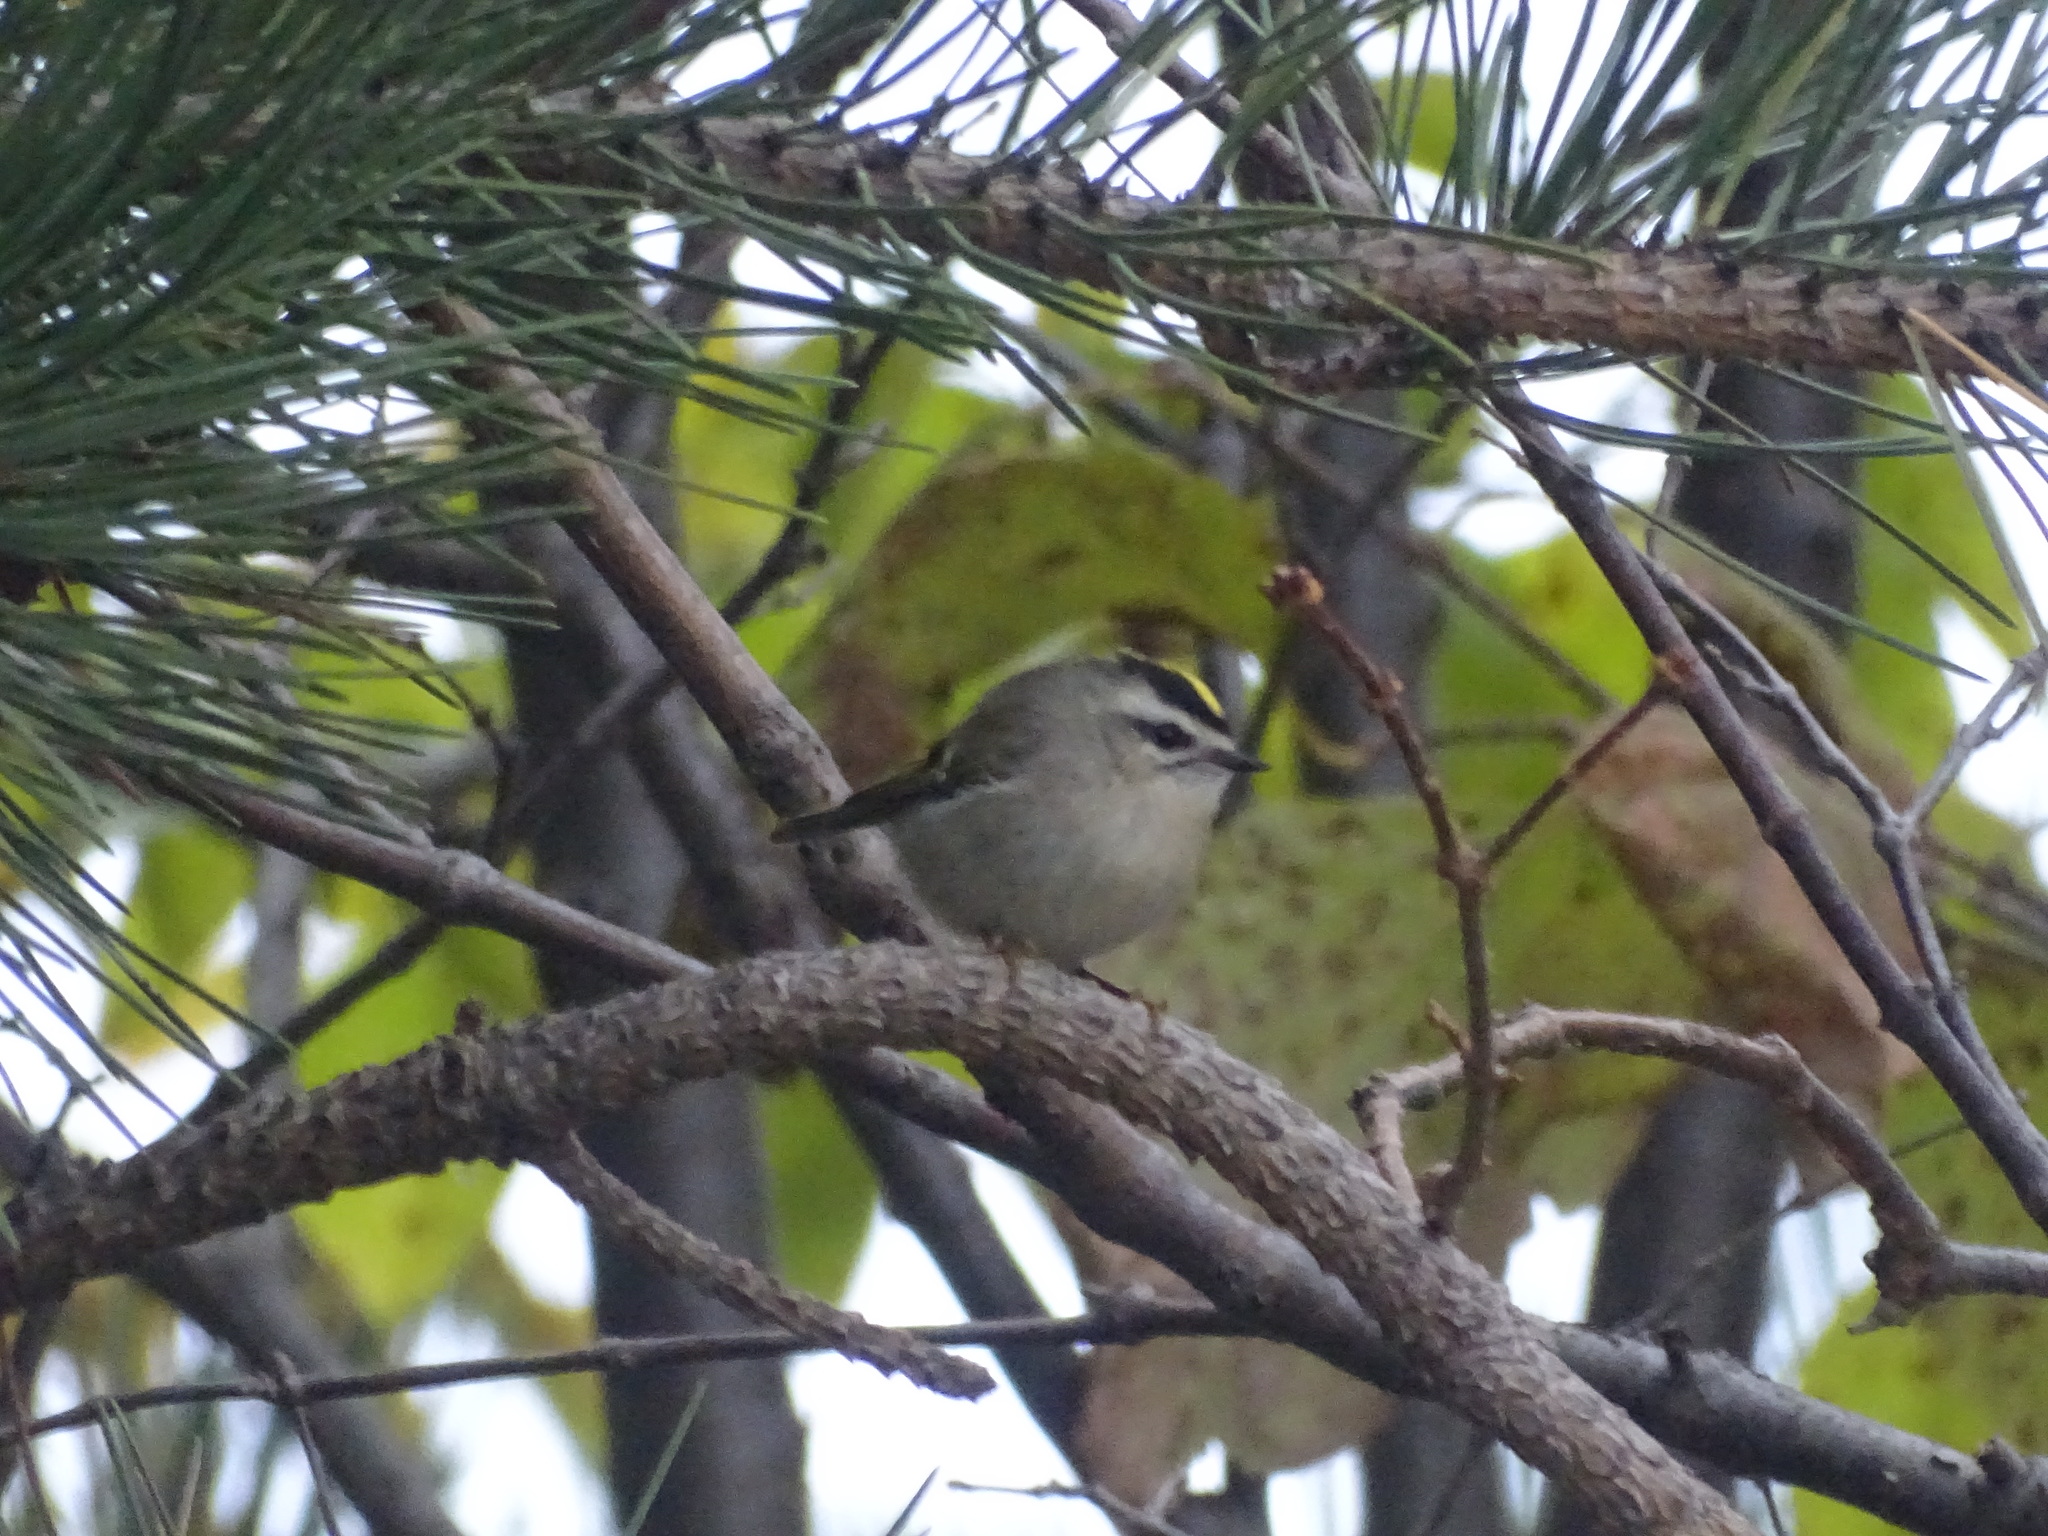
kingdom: Animalia
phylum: Chordata
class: Aves
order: Passeriformes
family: Regulidae
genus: Regulus
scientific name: Regulus satrapa
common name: Golden-crowned kinglet
